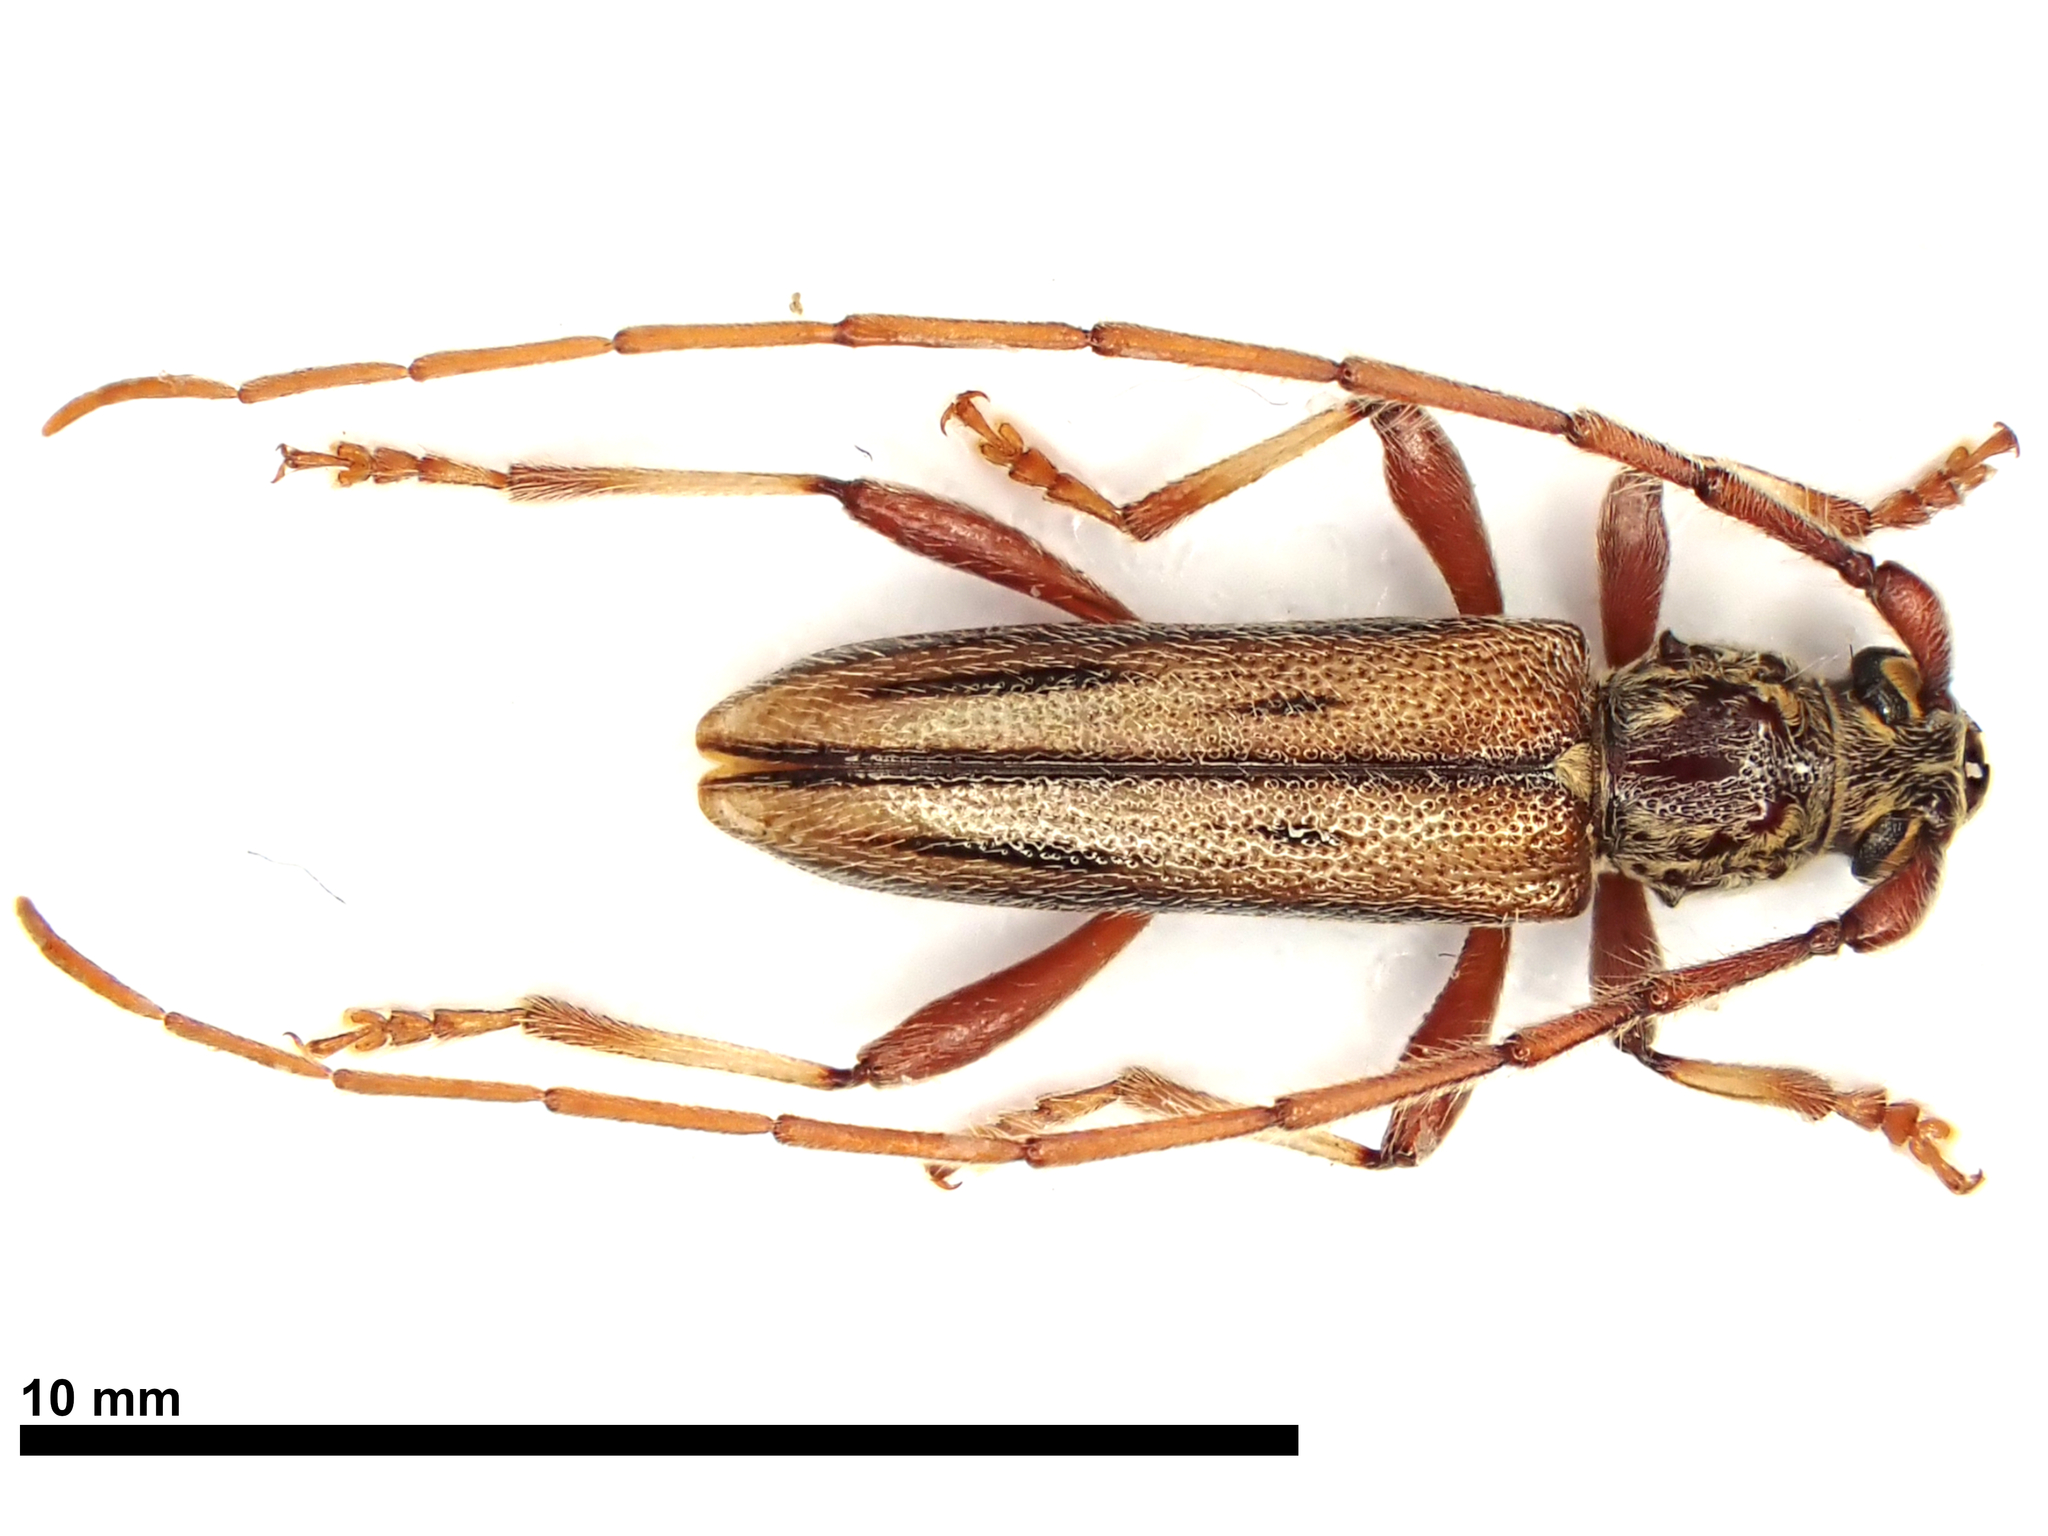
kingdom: Animalia
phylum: Arthropoda
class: Insecta
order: Coleoptera
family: Cerambycidae
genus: Didymocantha
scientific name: Didymocantha sublineata
